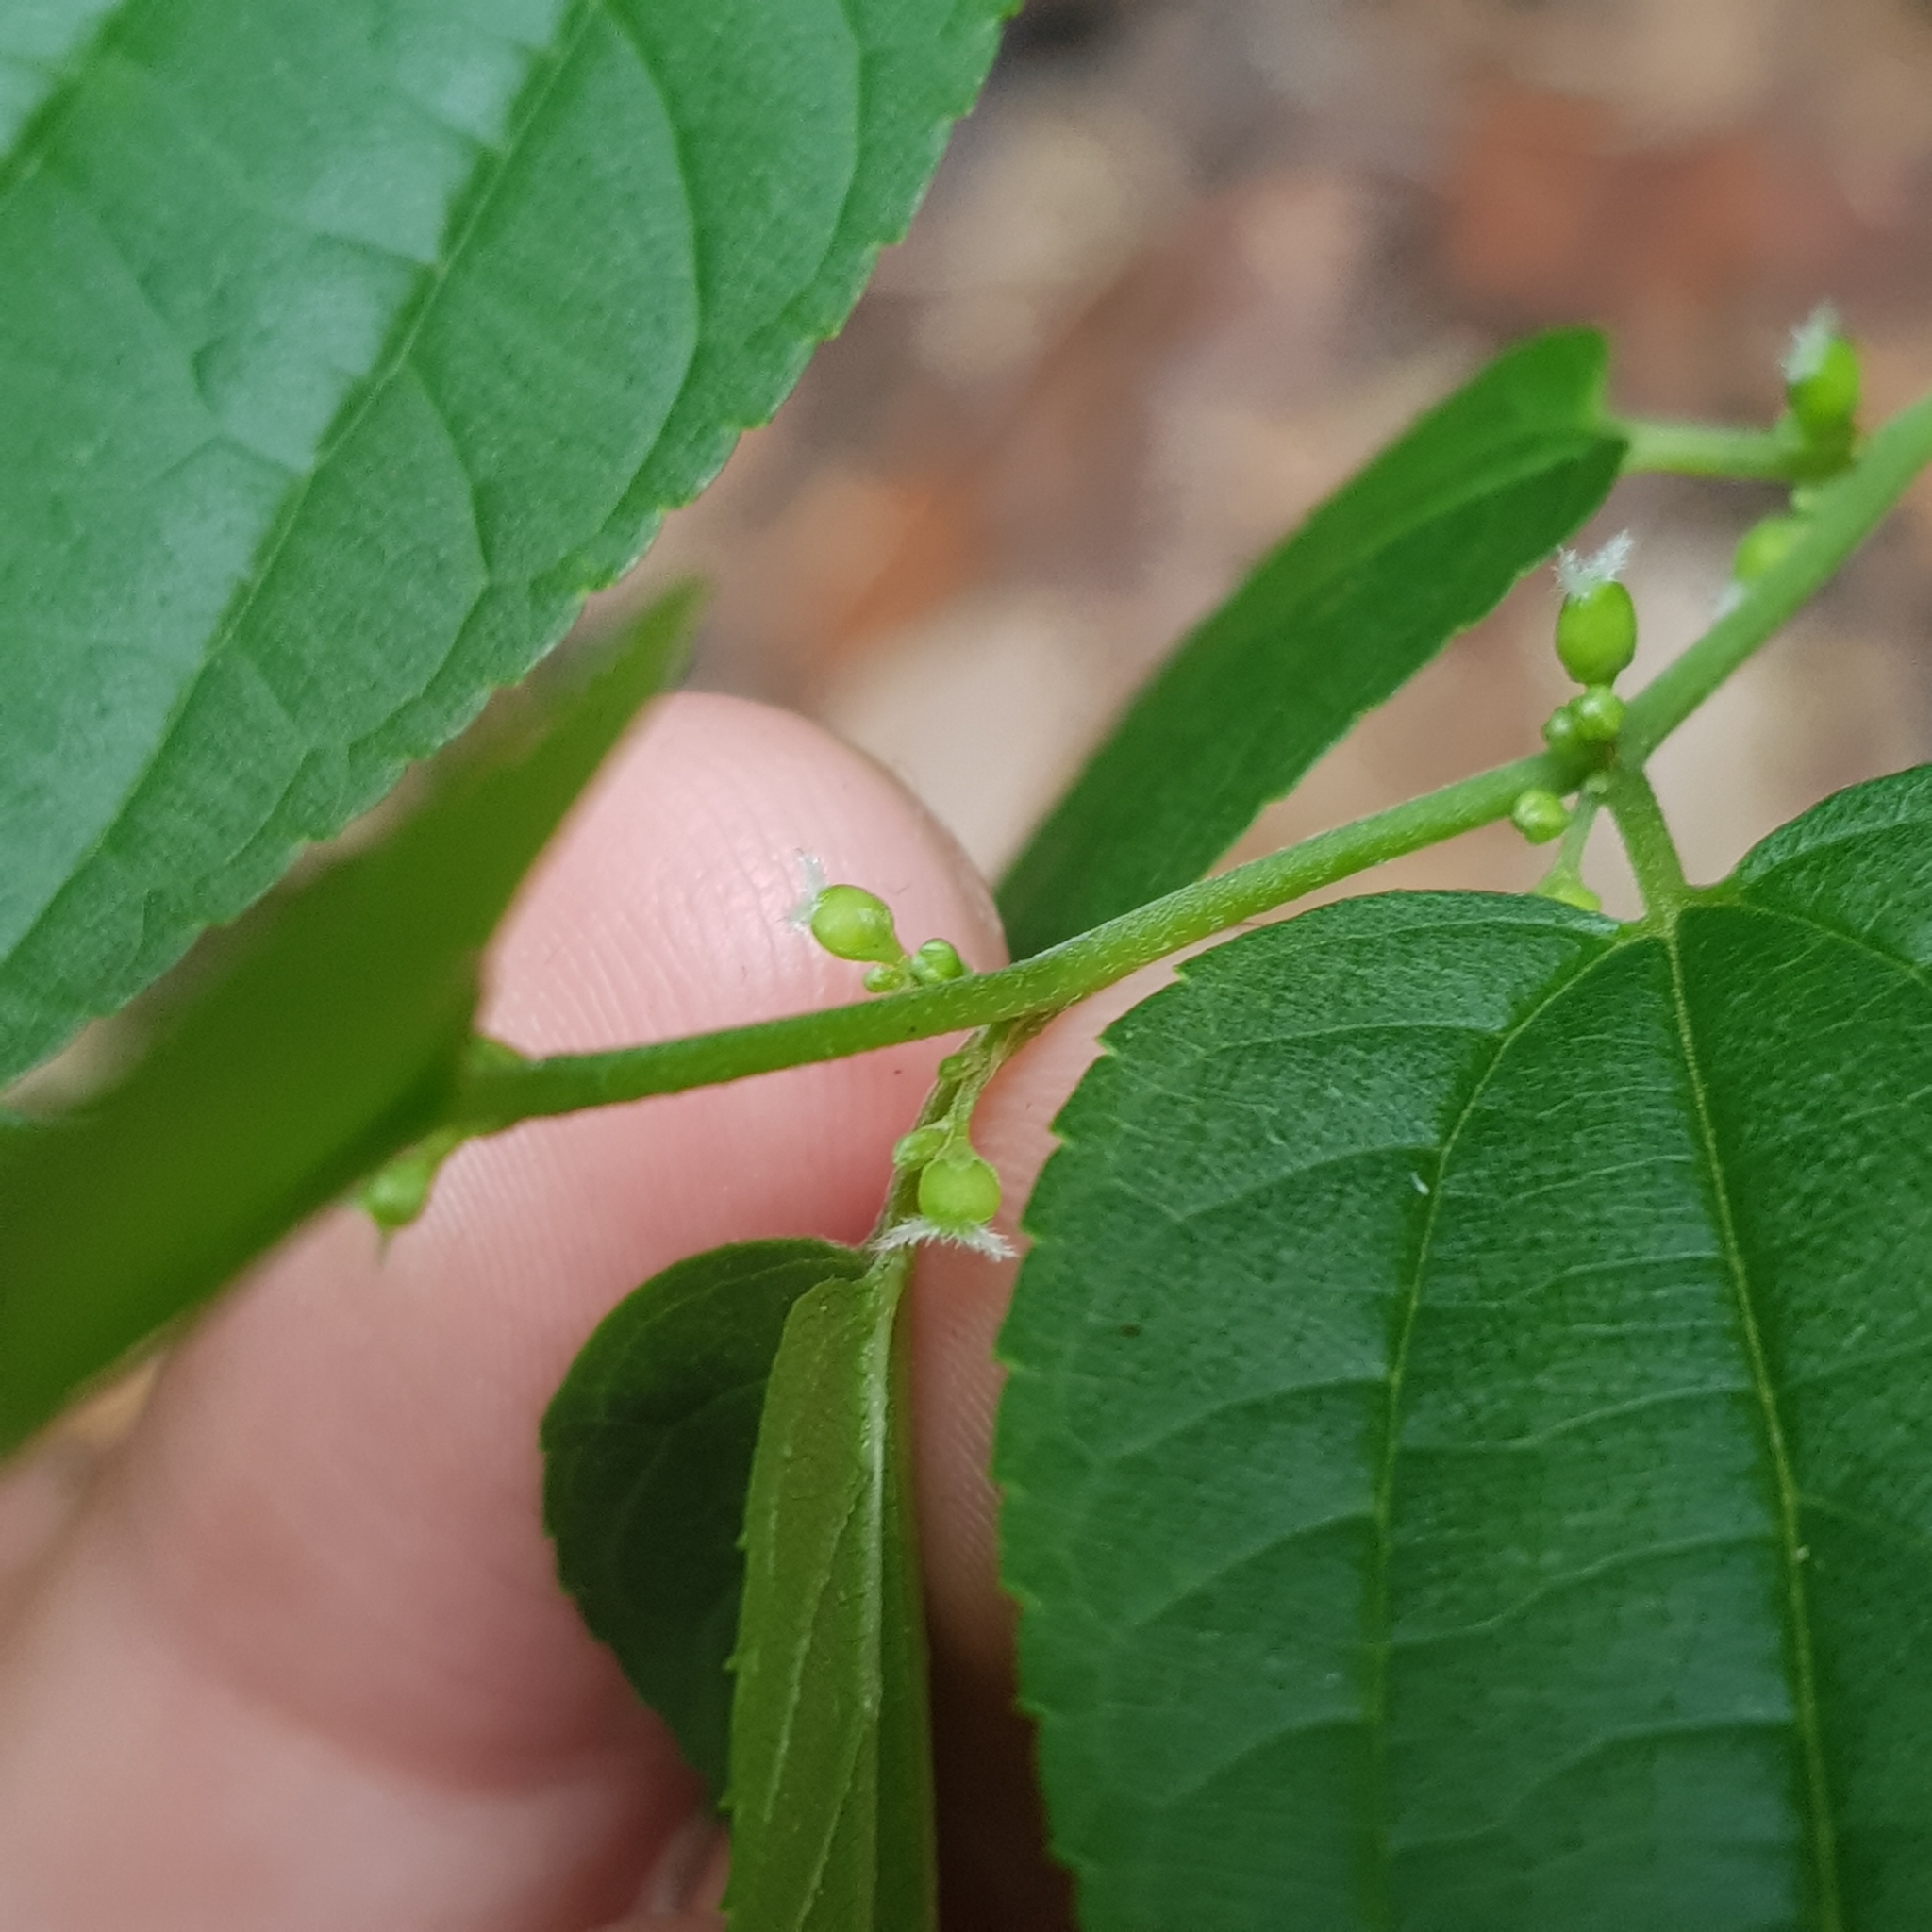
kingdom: Plantae
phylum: Tracheophyta
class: Magnoliopsida
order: Rosales
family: Cannabaceae
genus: Trema
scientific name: Trema cannabina
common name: Poison-peach
